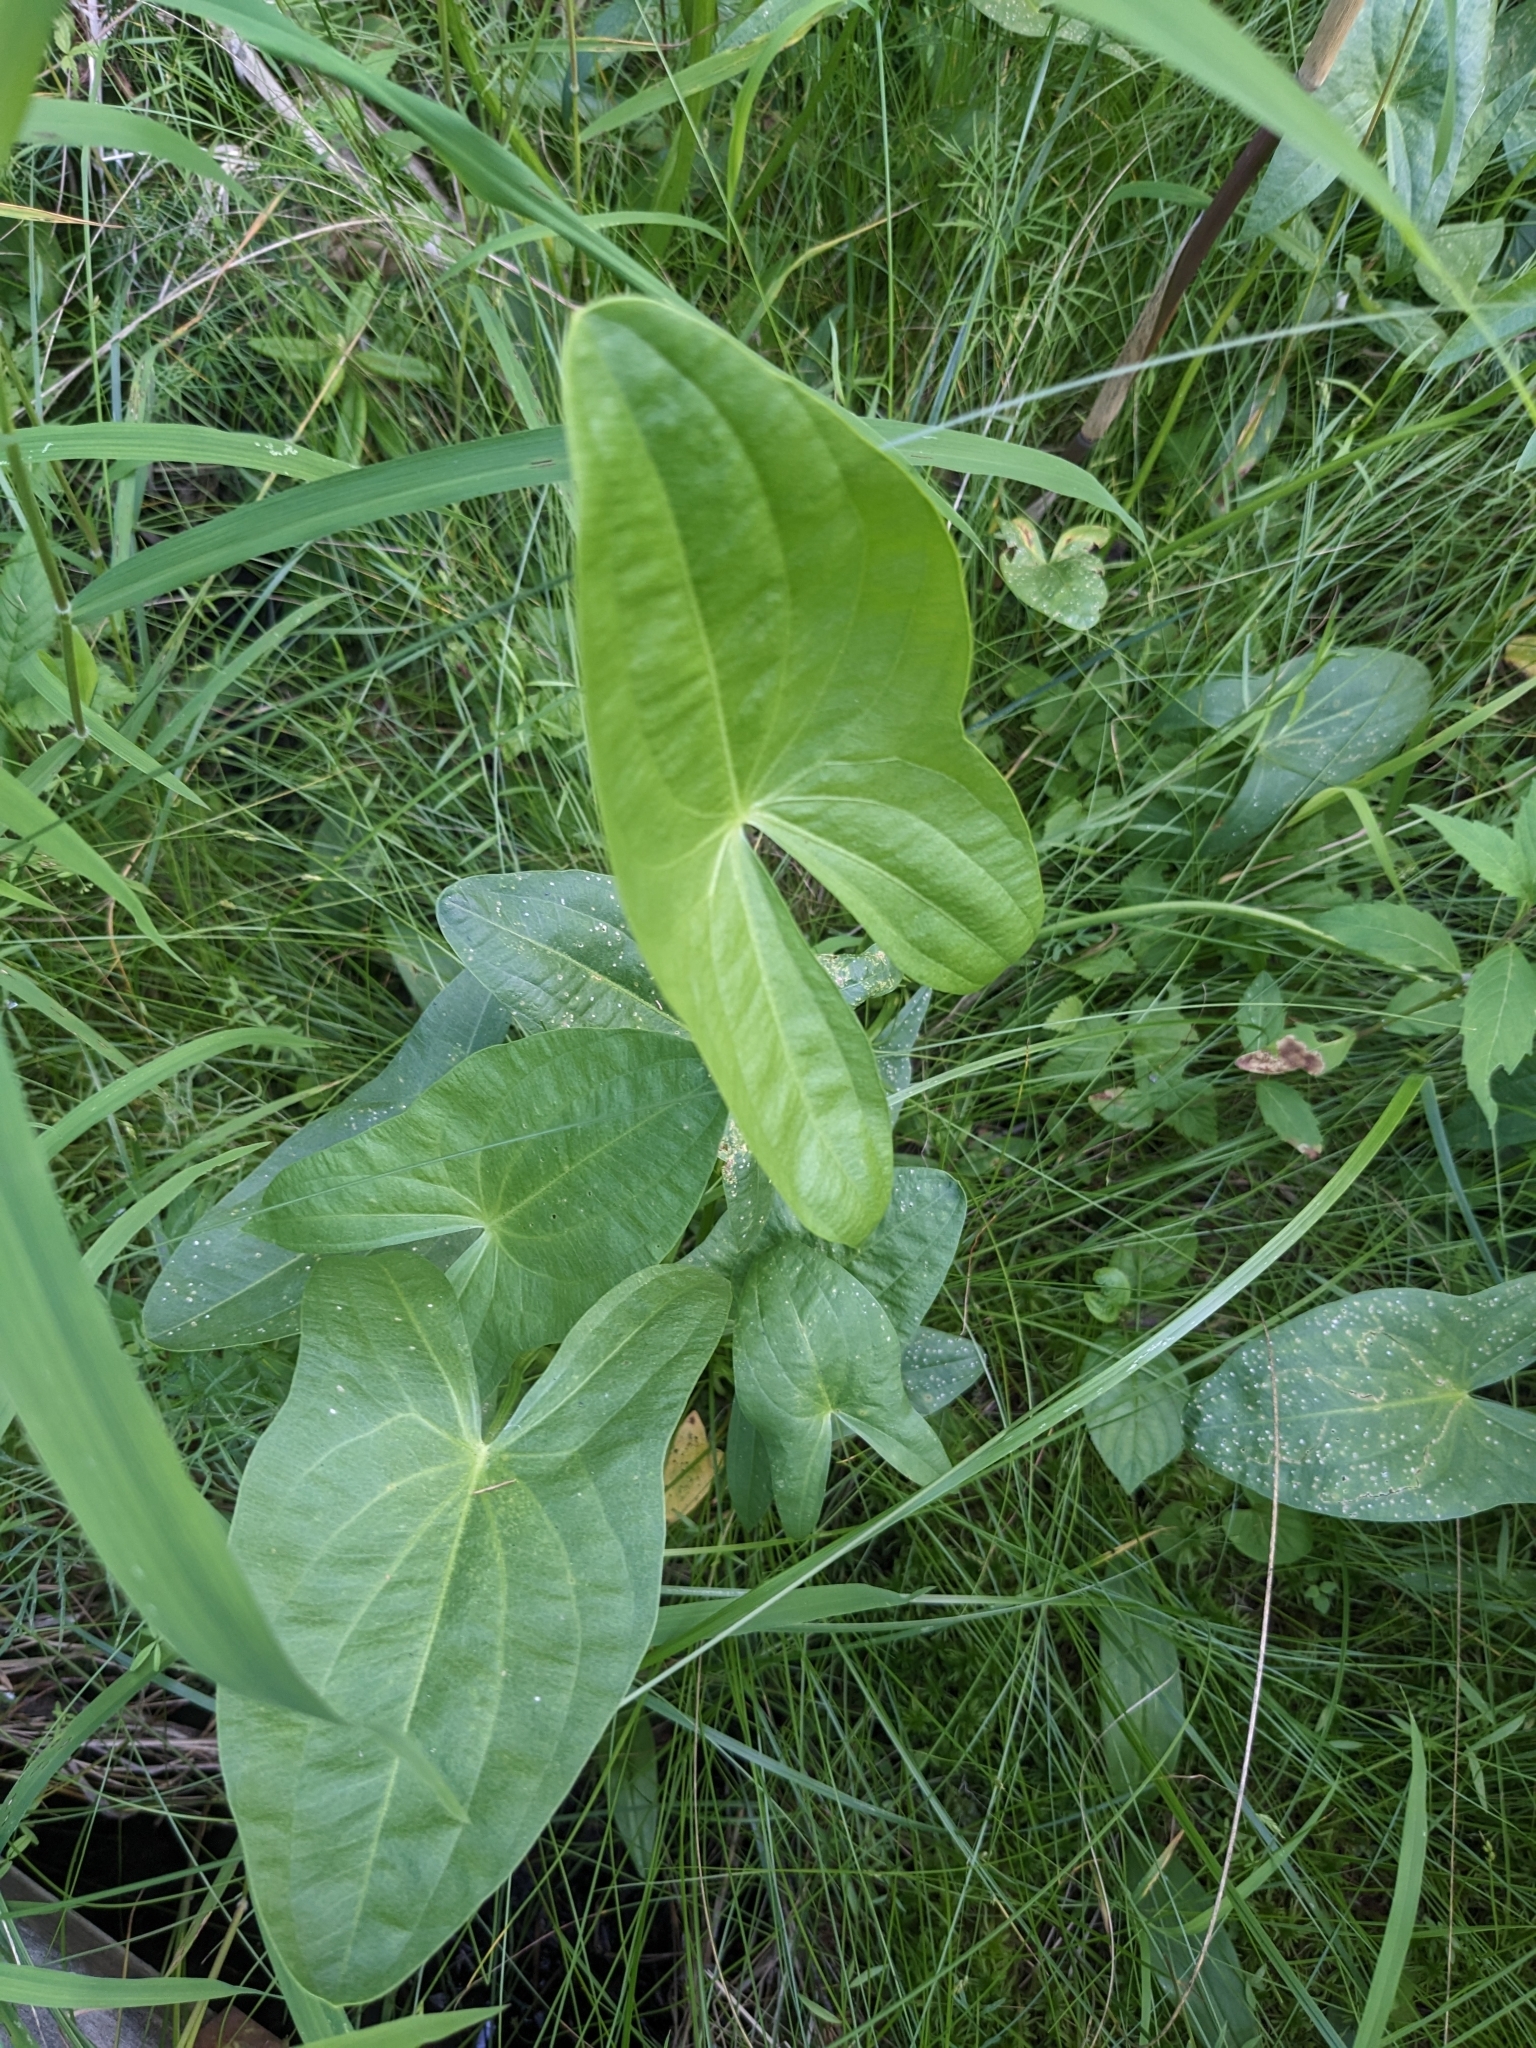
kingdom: Plantae
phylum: Tracheophyta
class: Liliopsida
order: Alismatales
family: Alismataceae
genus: Sagittaria
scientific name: Sagittaria latifolia
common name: Duck-potato
